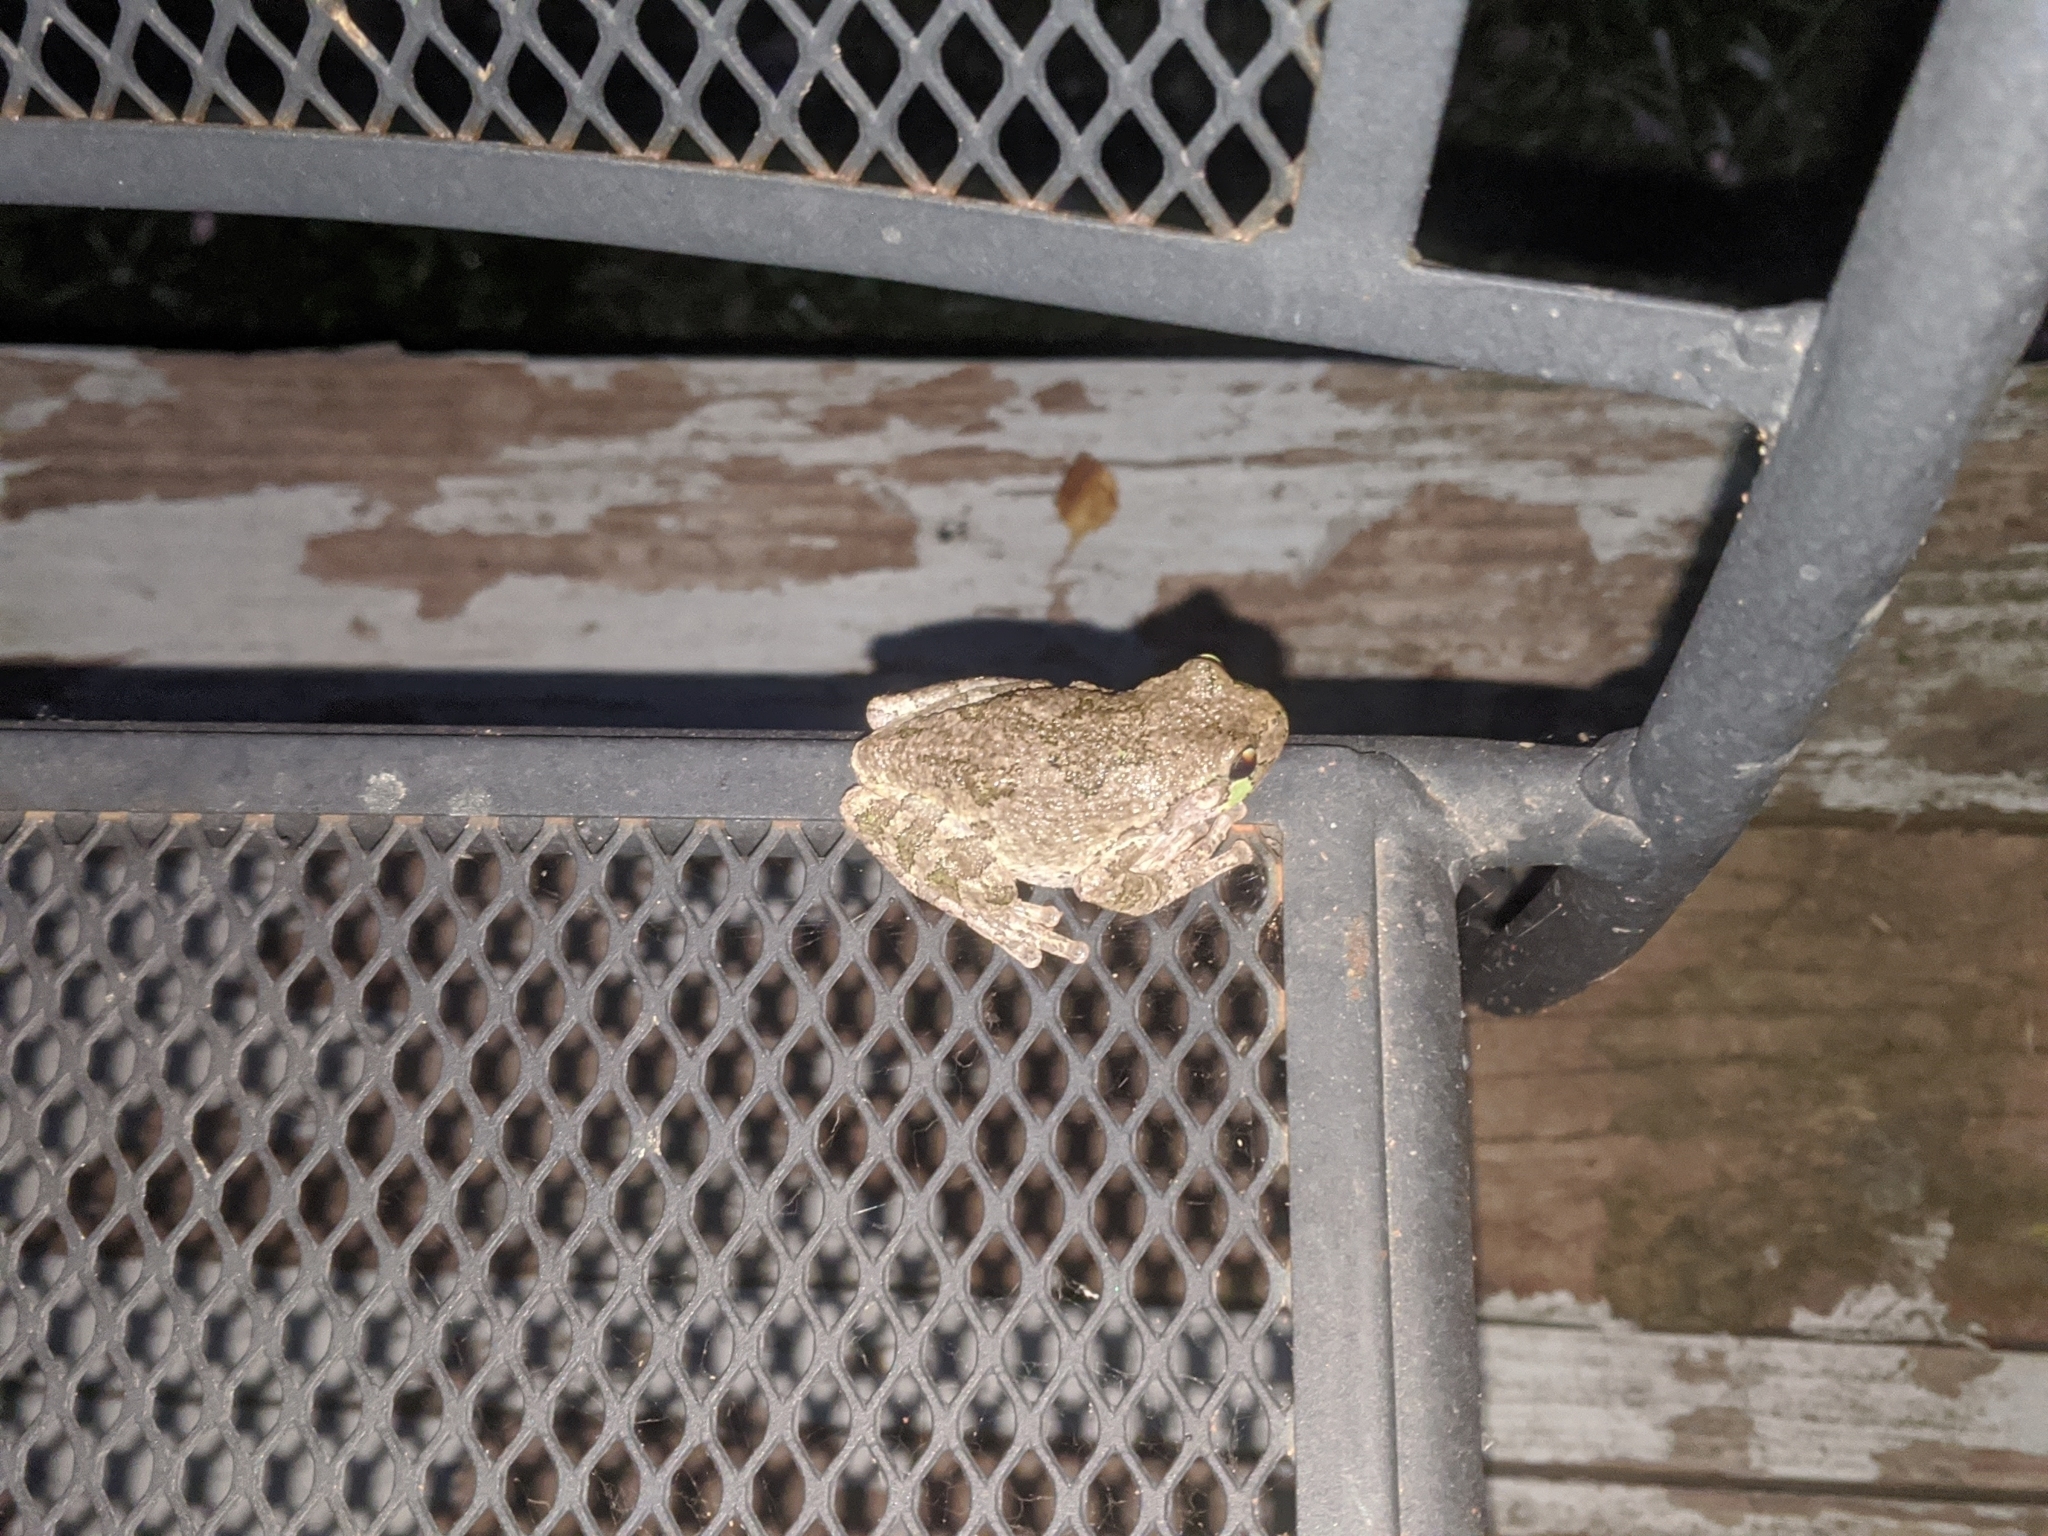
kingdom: Animalia
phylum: Chordata
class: Amphibia
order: Anura
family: Hylidae
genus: Dryophytes
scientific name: Dryophytes versicolor
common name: Gray treefrog
